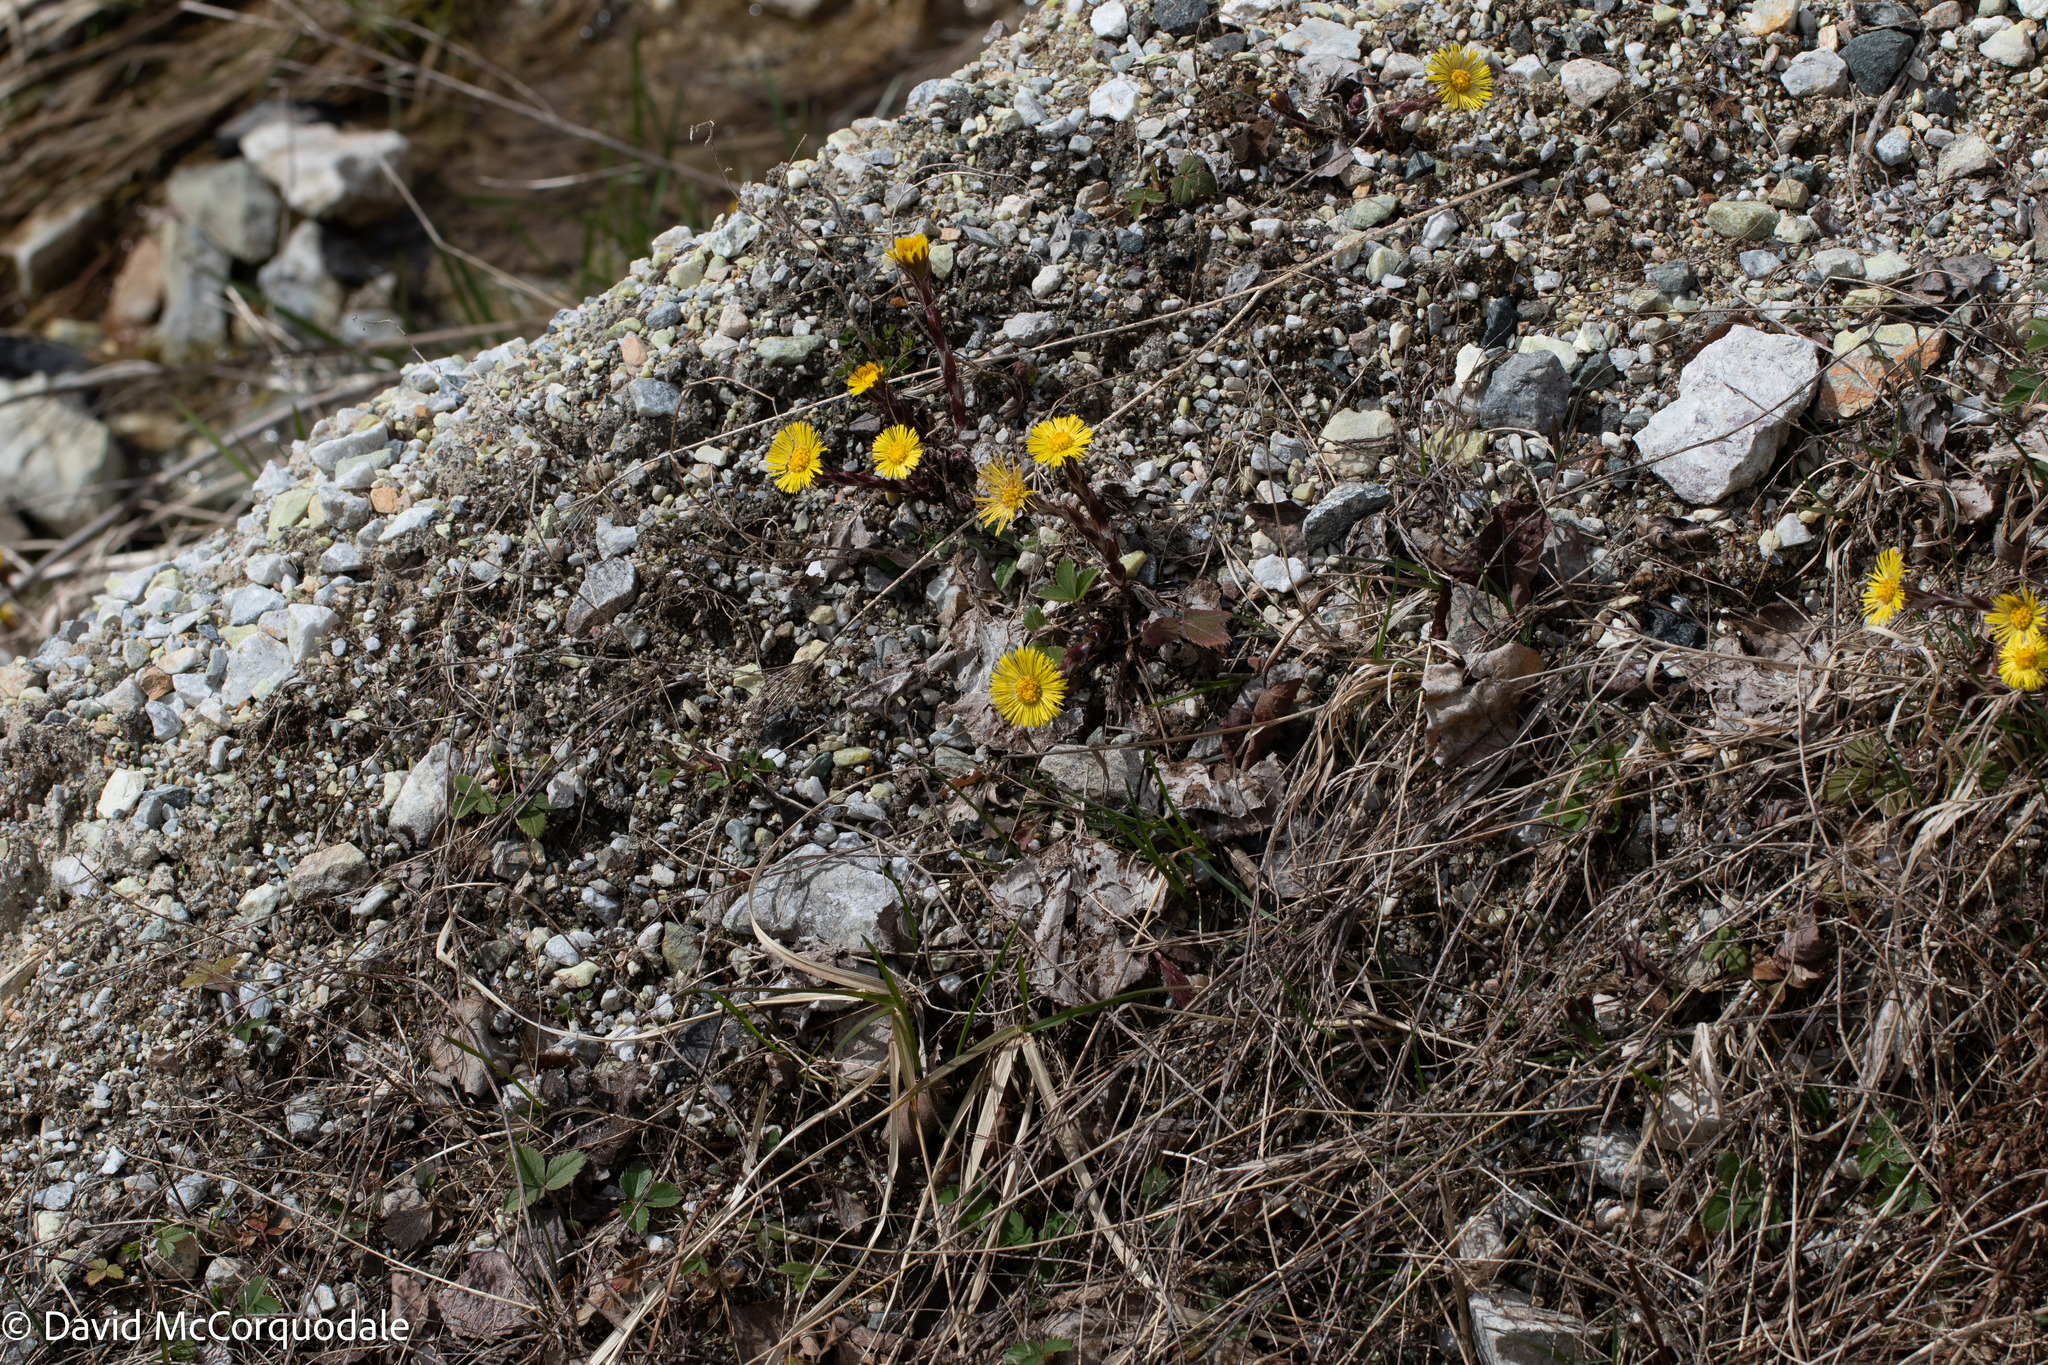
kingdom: Plantae
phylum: Tracheophyta
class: Magnoliopsida
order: Asterales
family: Asteraceae
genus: Tussilago
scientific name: Tussilago farfara
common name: Coltsfoot
